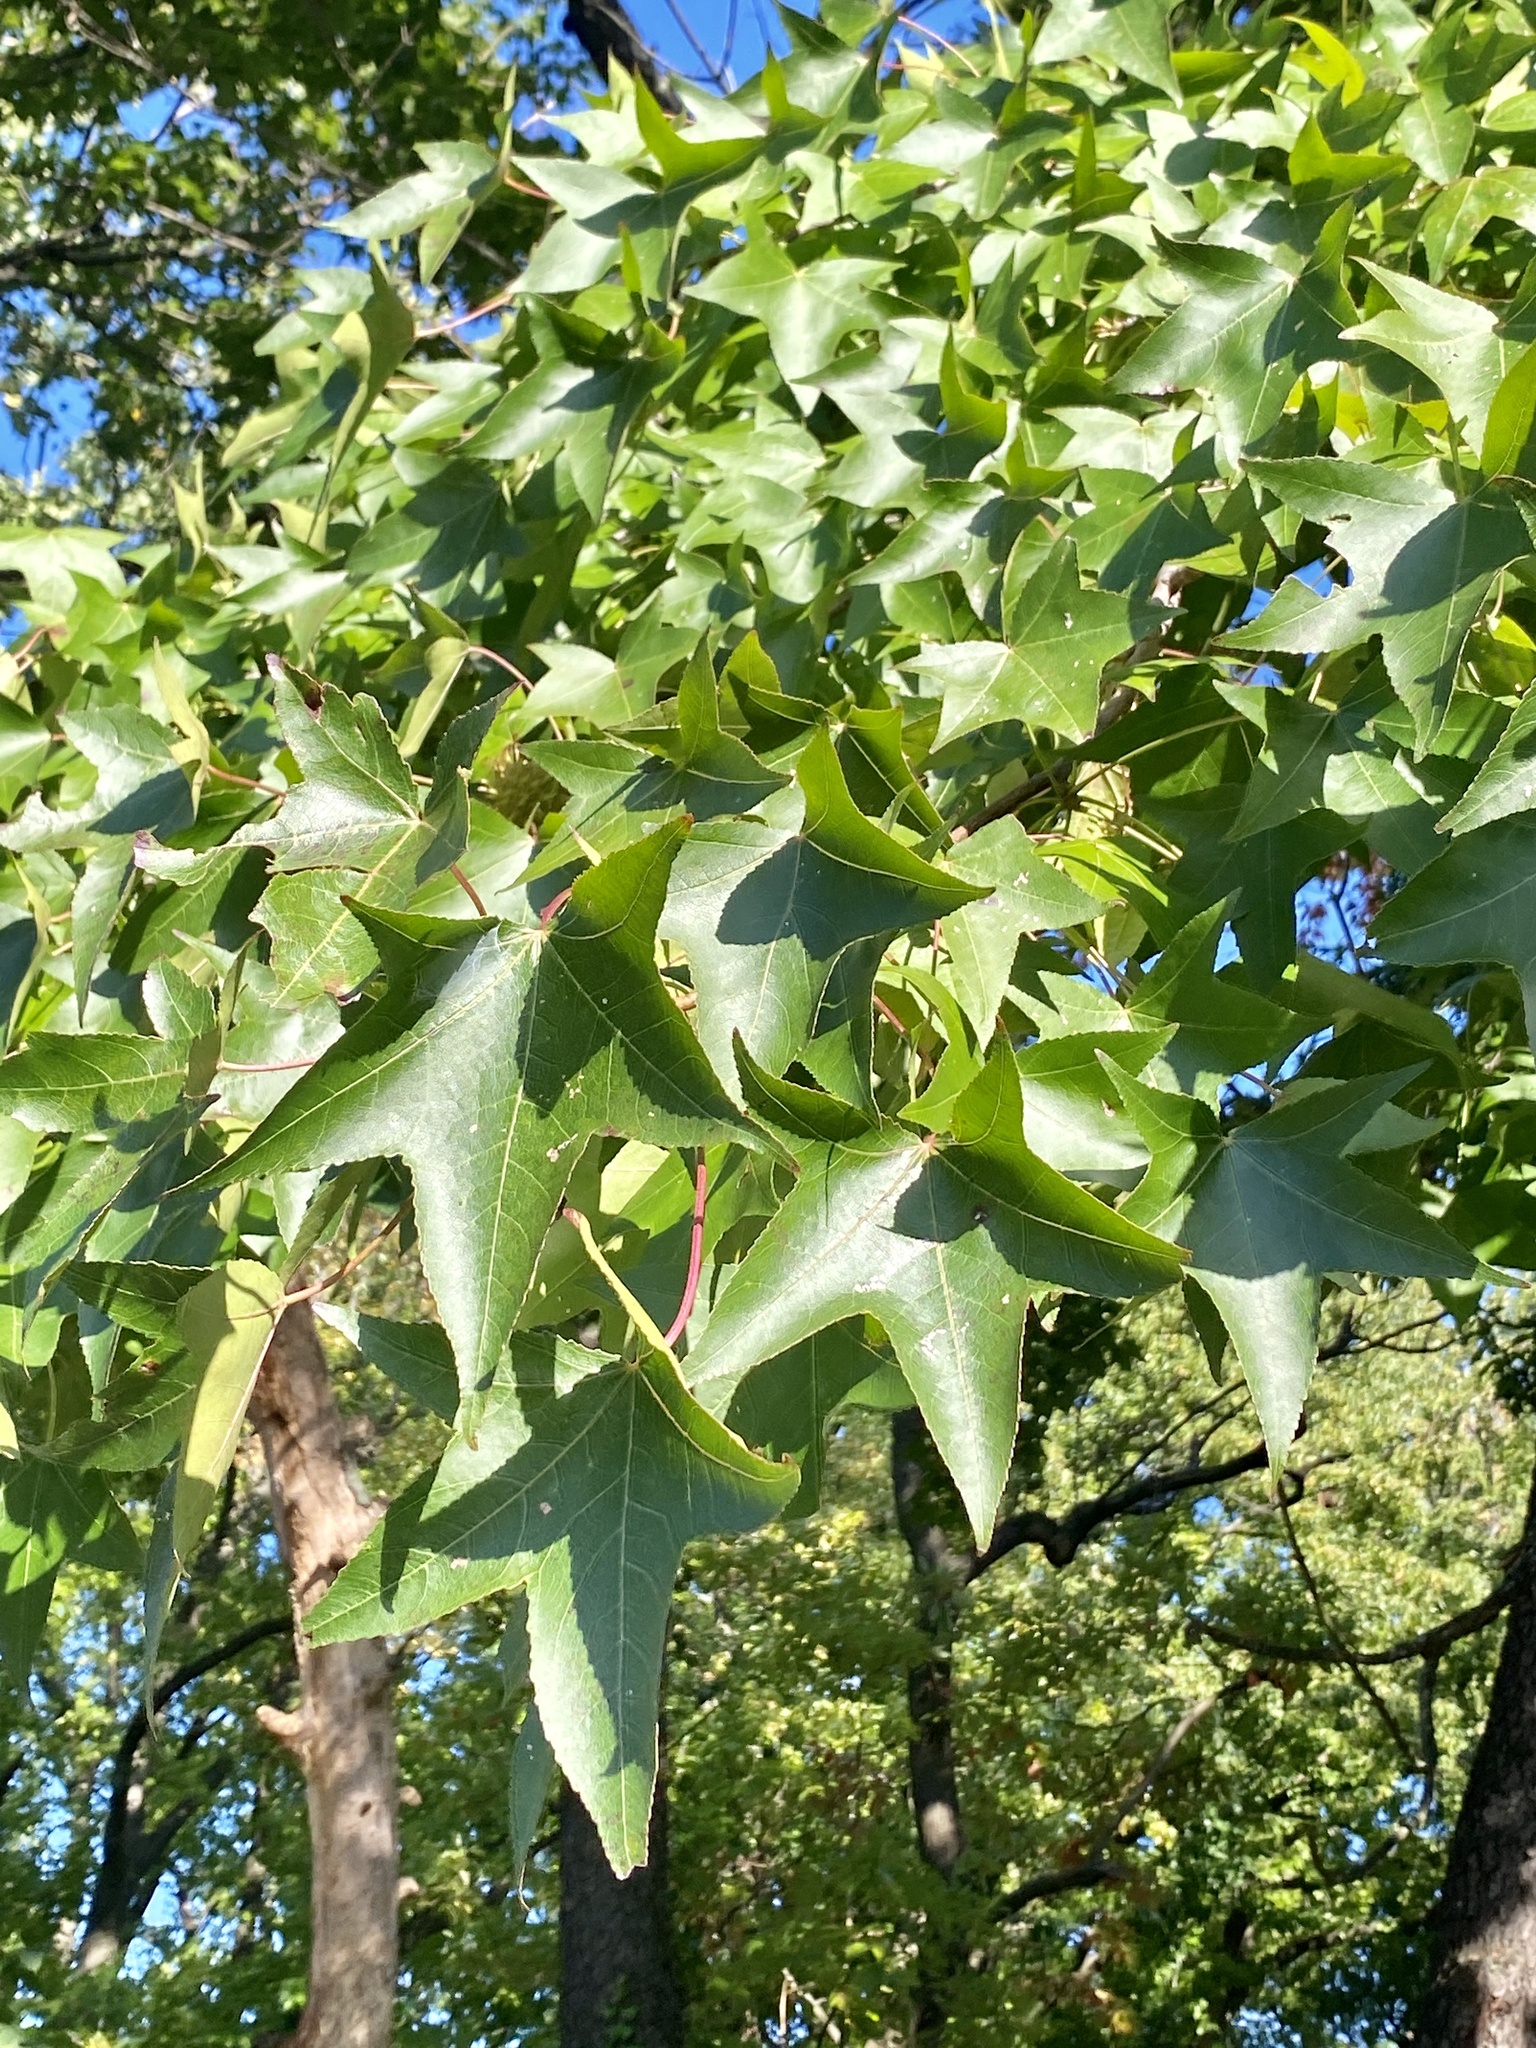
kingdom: Plantae
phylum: Tracheophyta
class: Magnoliopsida
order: Saxifragales
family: Altingiaceae
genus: Liquidambar
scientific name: Liquidambar styraciflua
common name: Sweet gum
